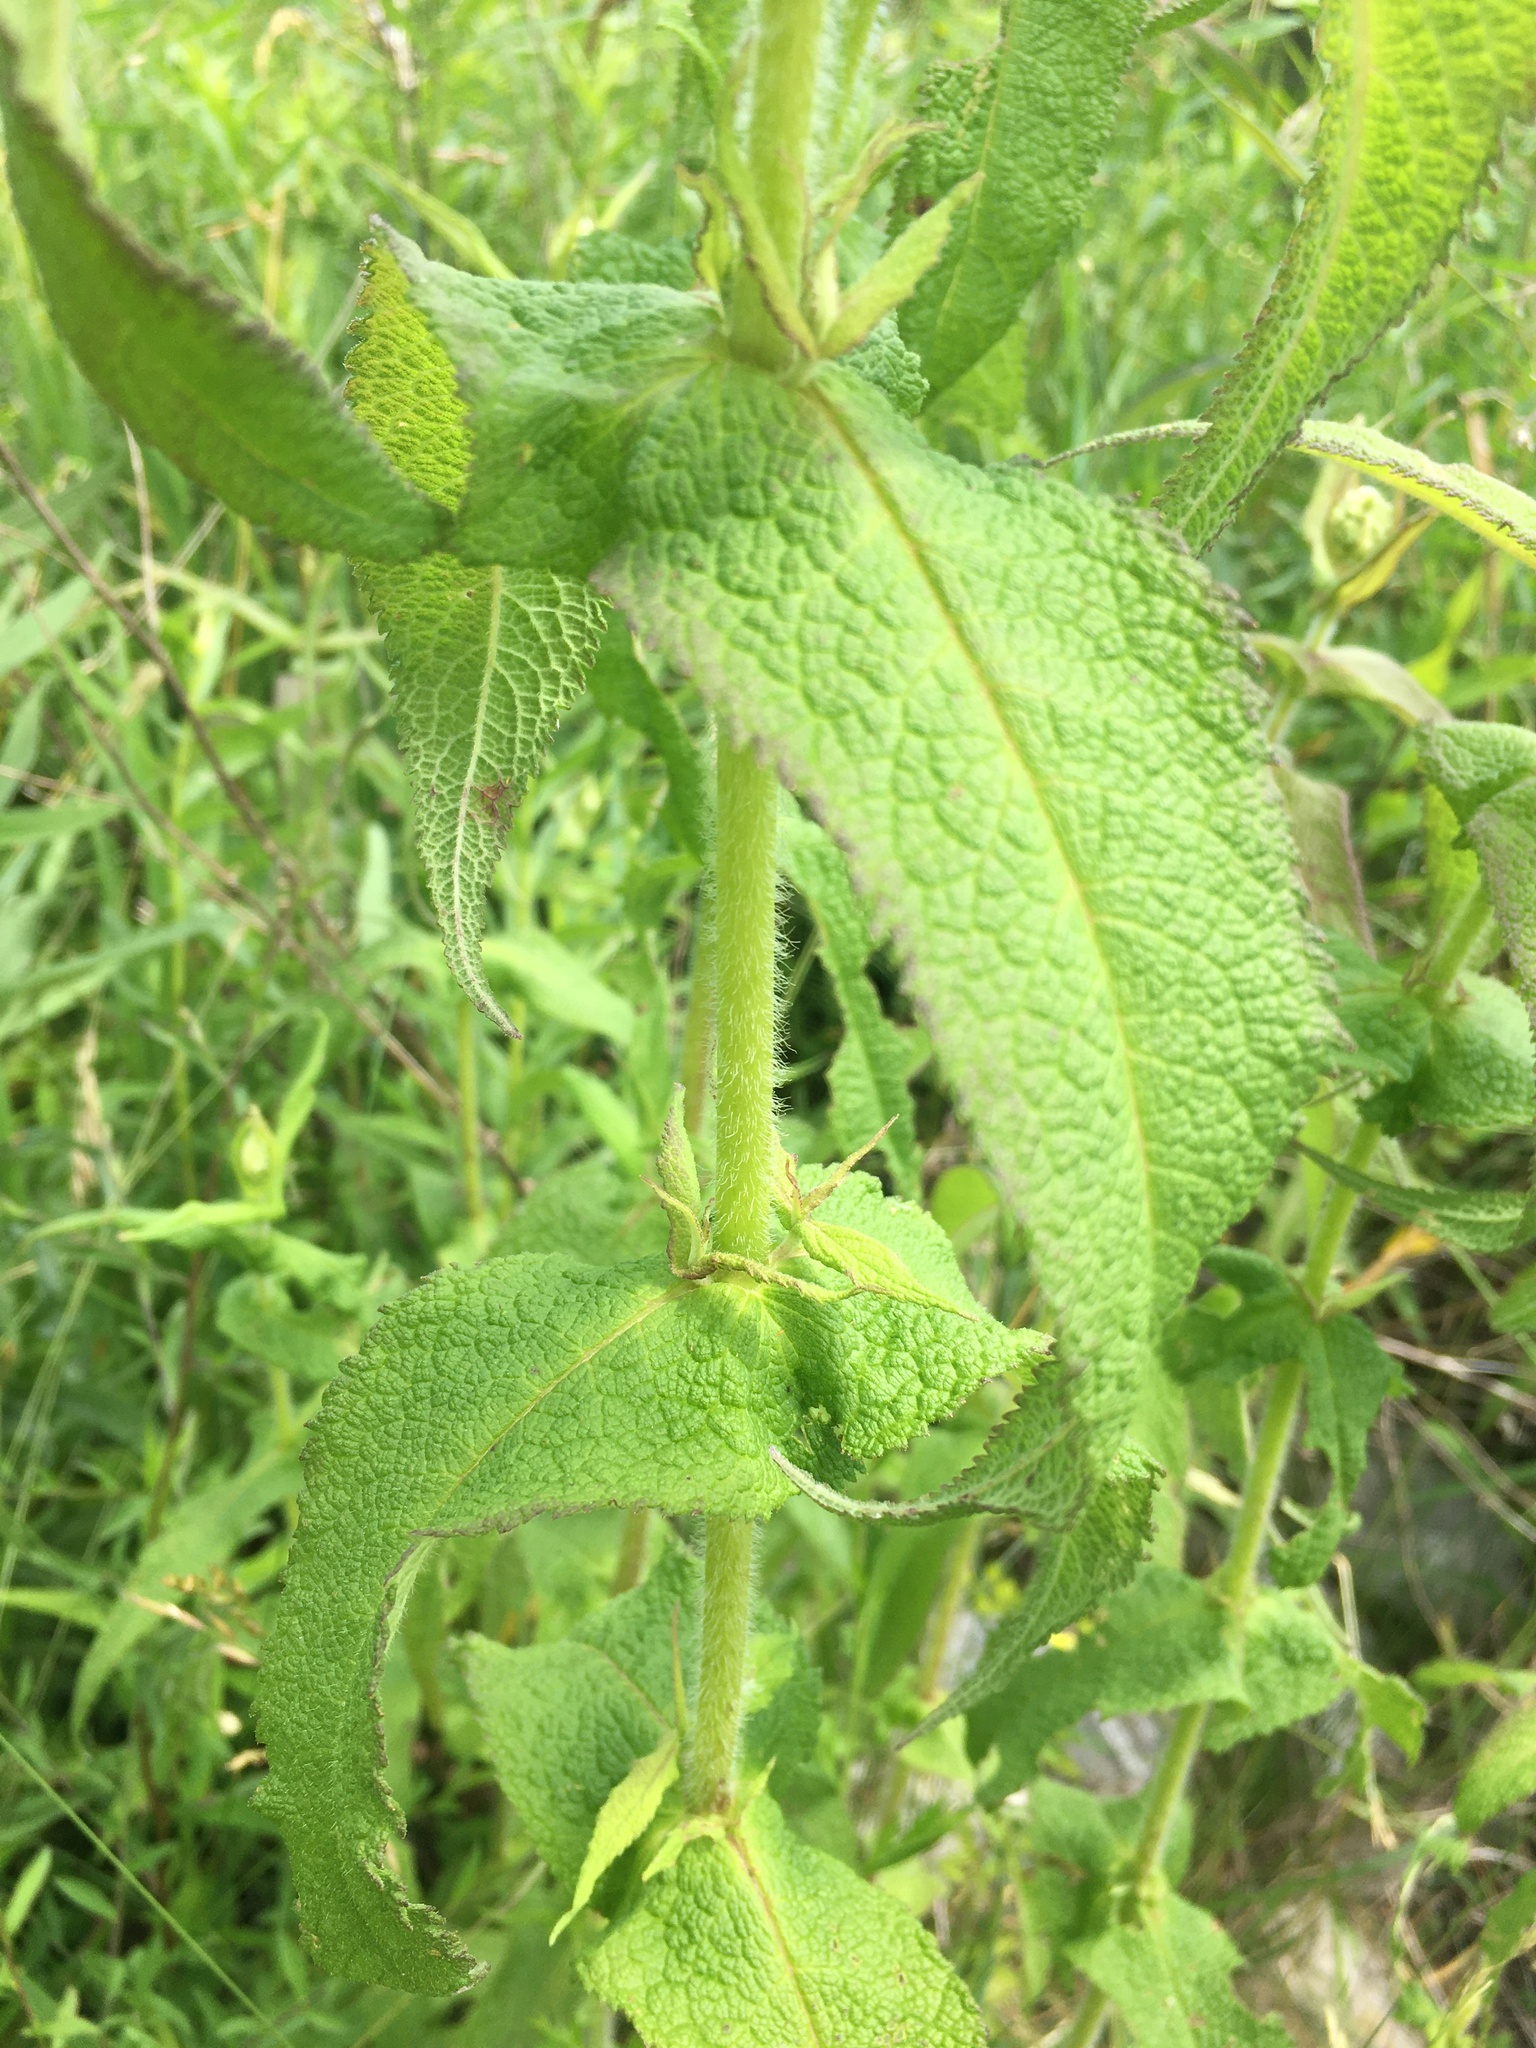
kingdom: Plantae
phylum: Tracheophyta
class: Magnoliopsida
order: Asterales
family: Asteraceae
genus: Eupatorium
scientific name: Eupatorium perfoliatum
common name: Boneset
